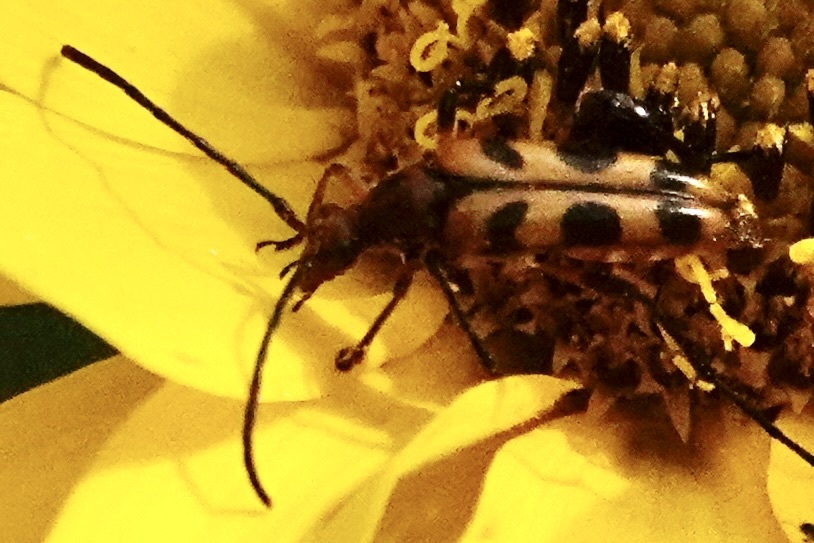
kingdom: Animalia
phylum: Arthropoda
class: Insecta
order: Coleoptera
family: Cerambycidae
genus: Strangalia
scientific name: Strangalia sexnotata
